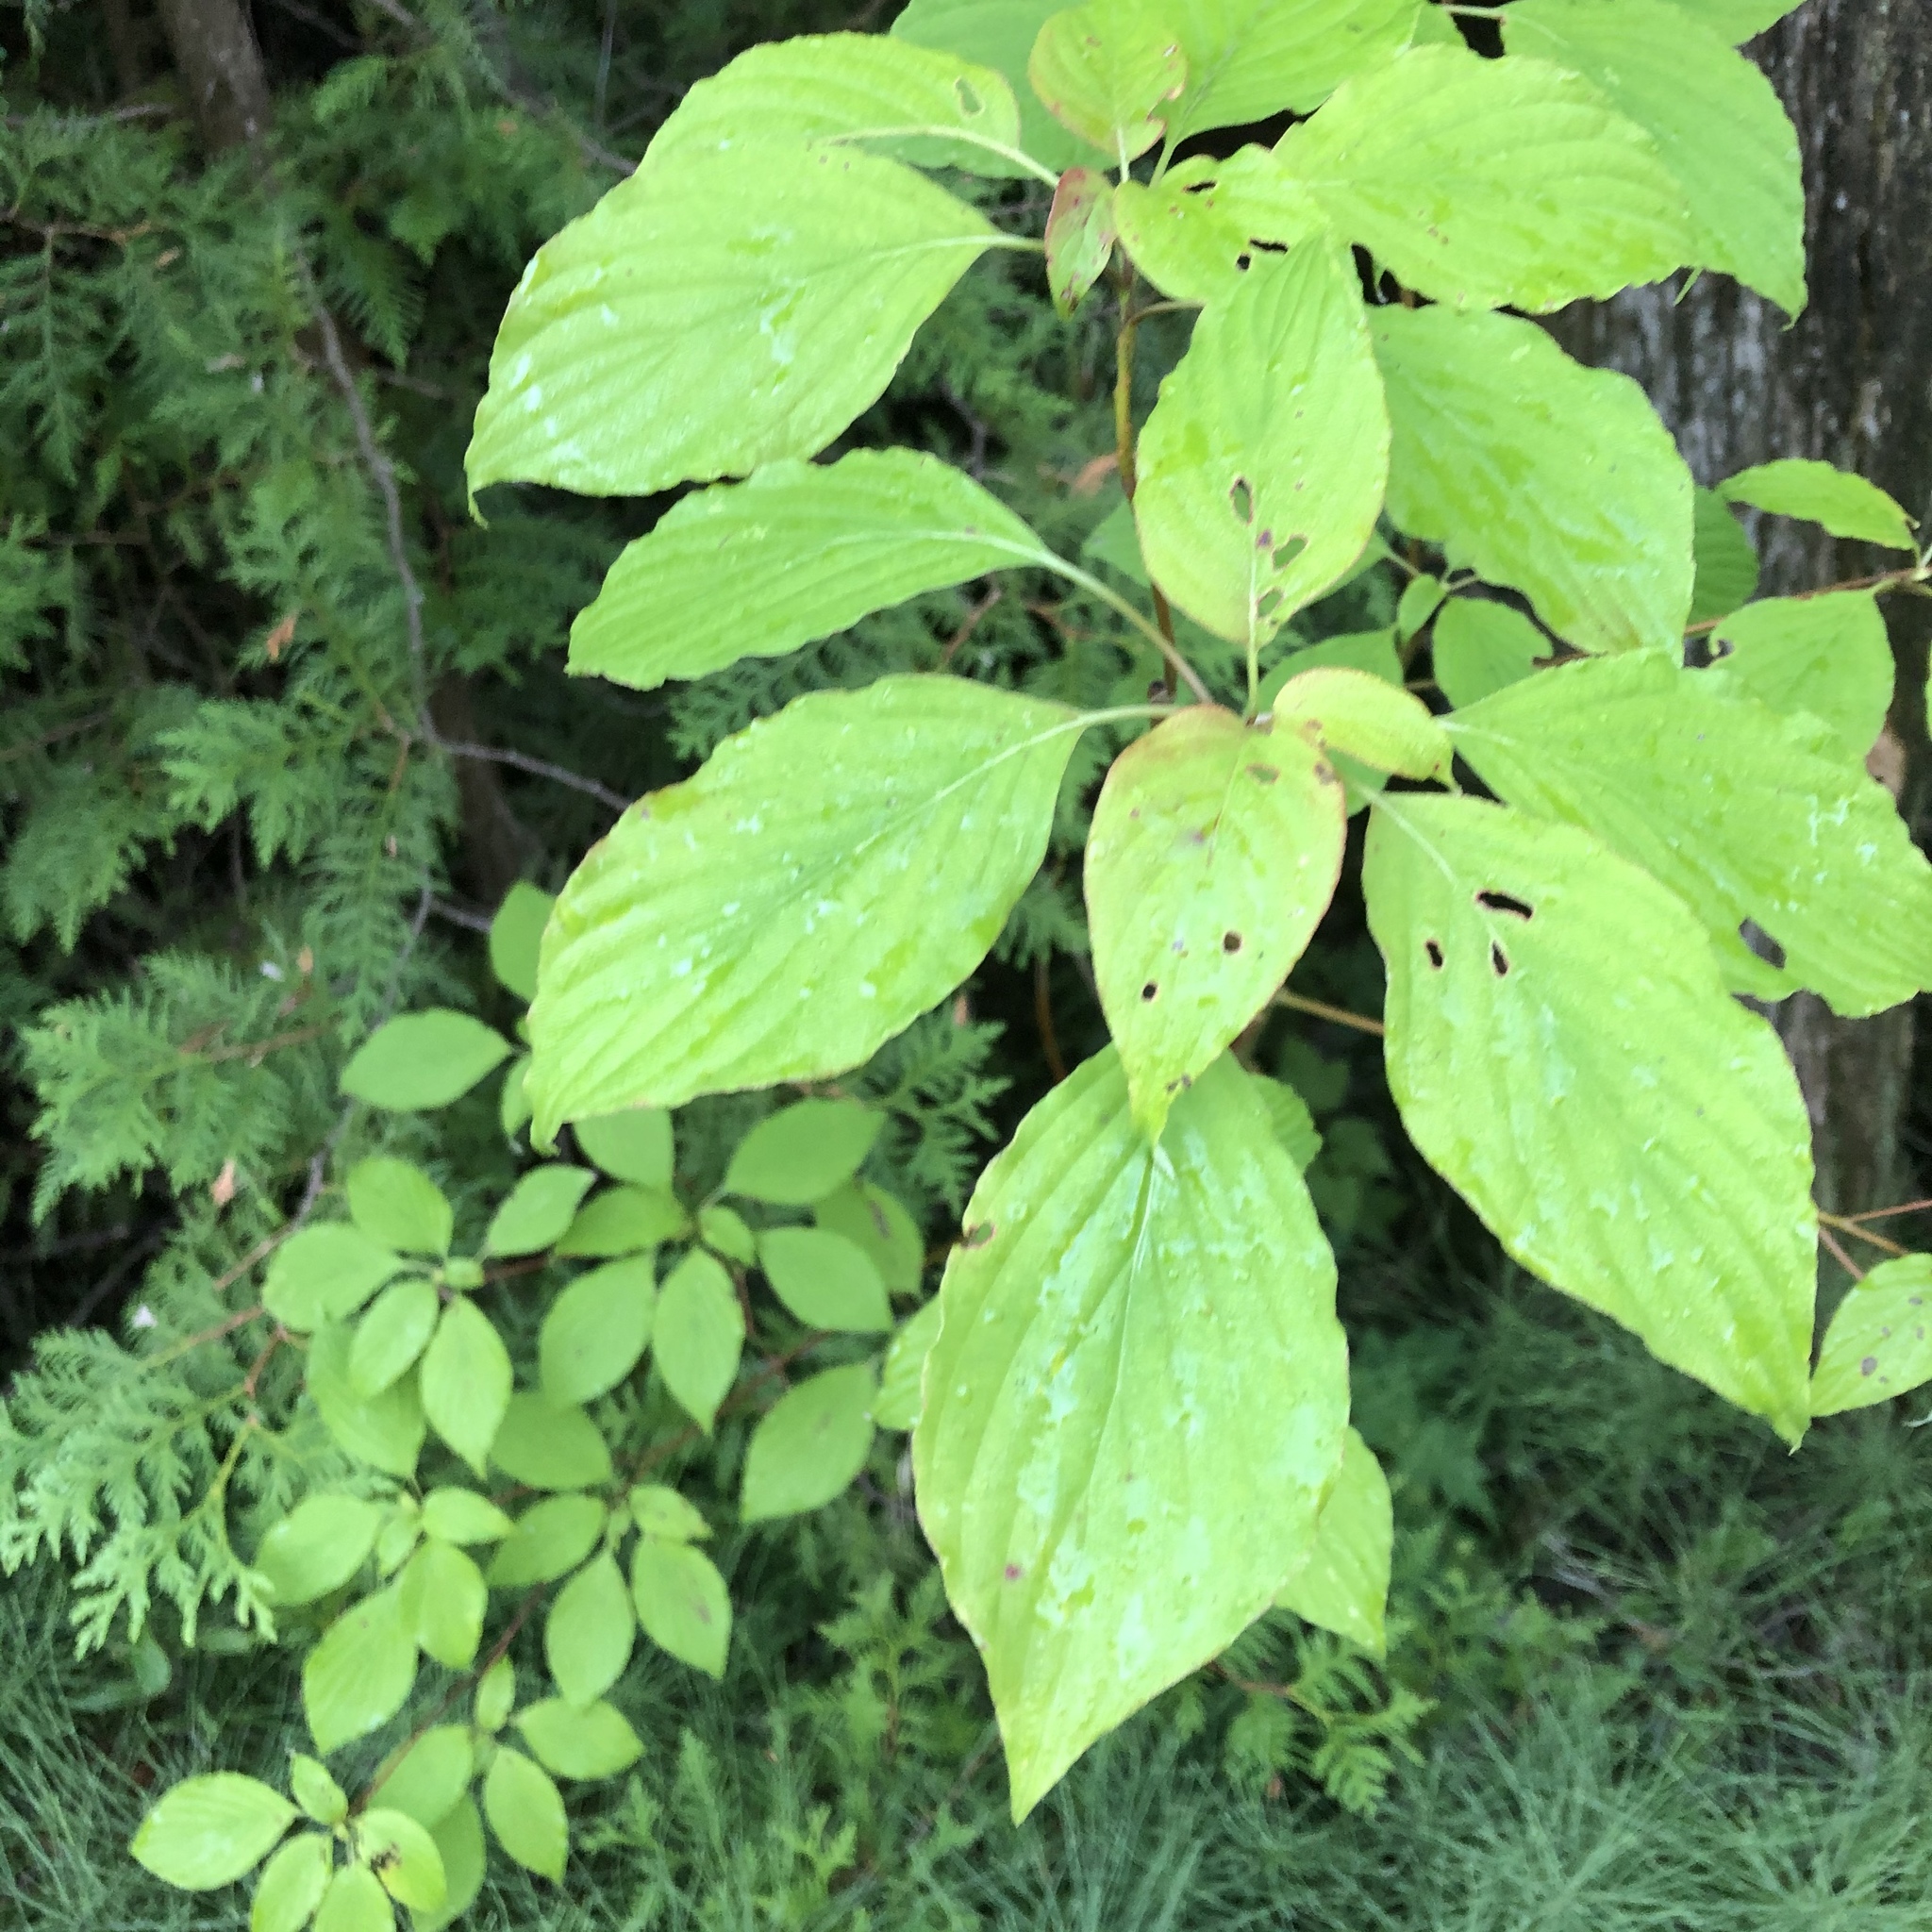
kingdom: Plantae
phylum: Tracheophyta
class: Magnoliopsida
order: Cornales
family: Cornaceae
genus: Cornus
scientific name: Cornus alternifolia
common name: Pagoda dogwood
